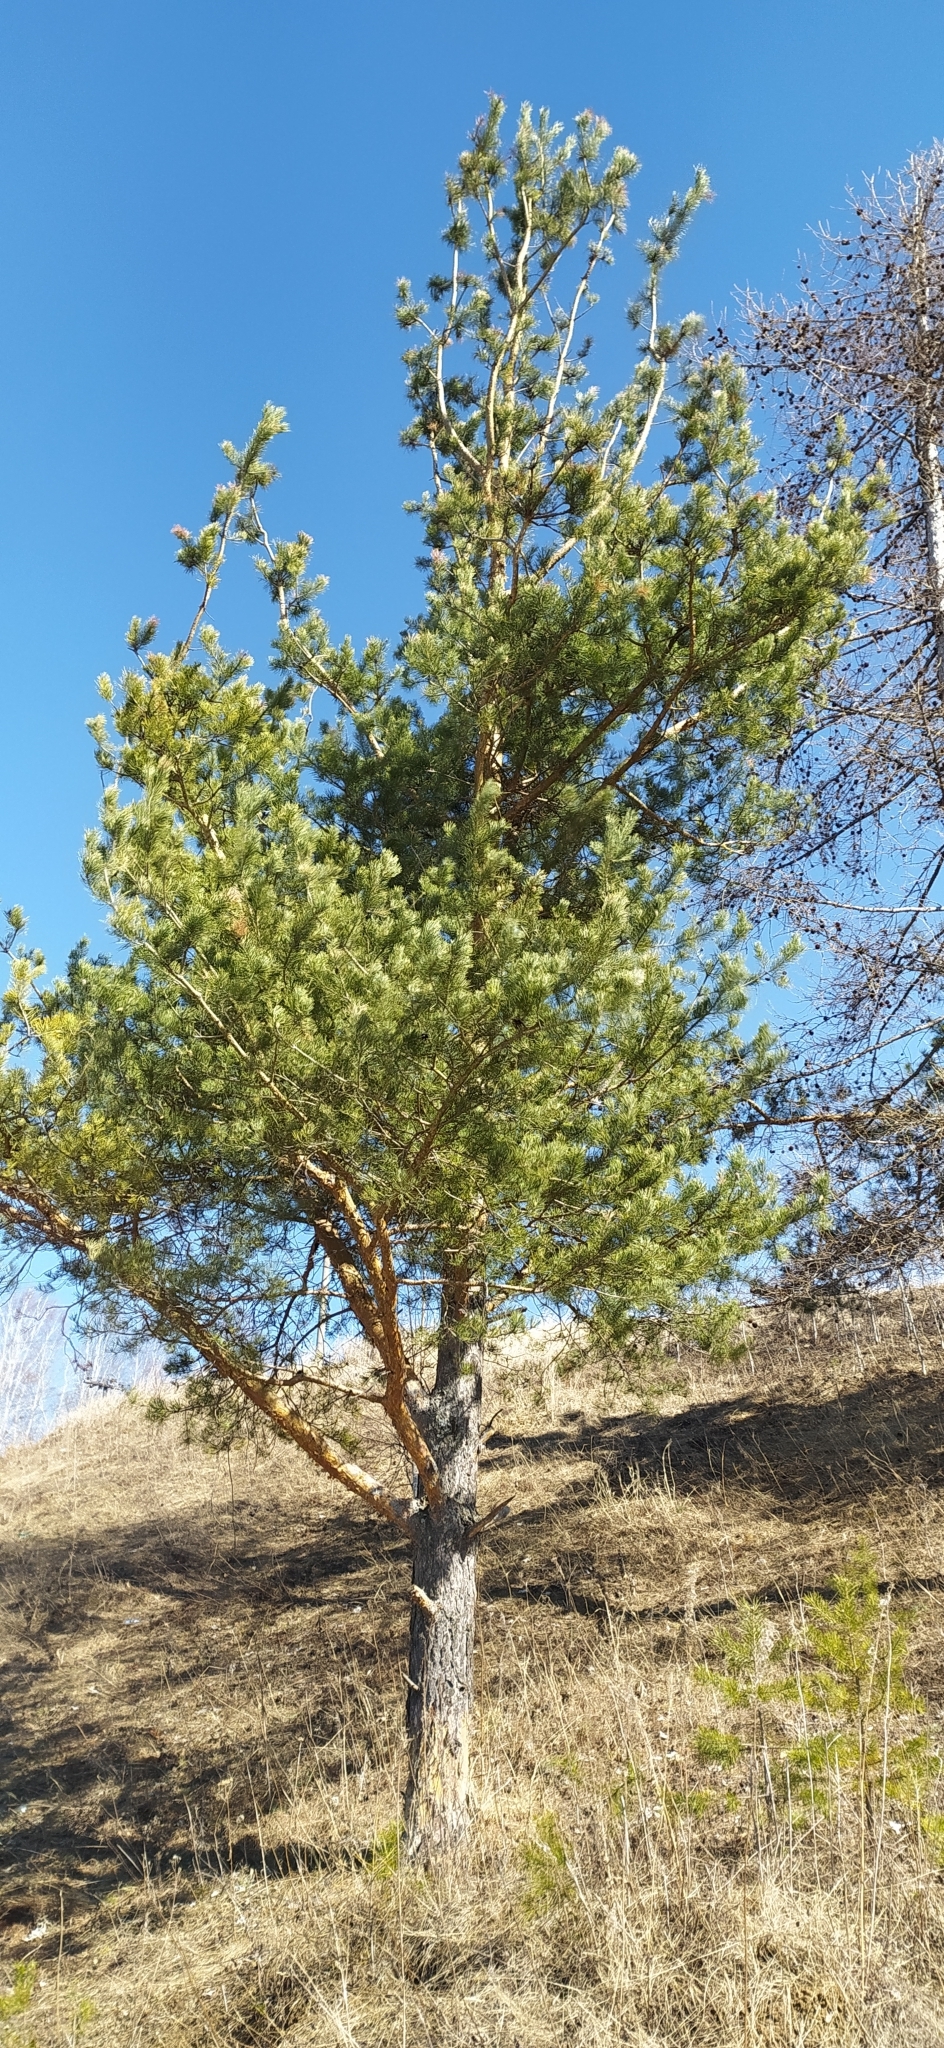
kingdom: Plantae
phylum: Tracheophyta
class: Pinopsida
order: Pinales
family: Pinaceae
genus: Pinus
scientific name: Pinus sylvestris
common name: Scots pine
